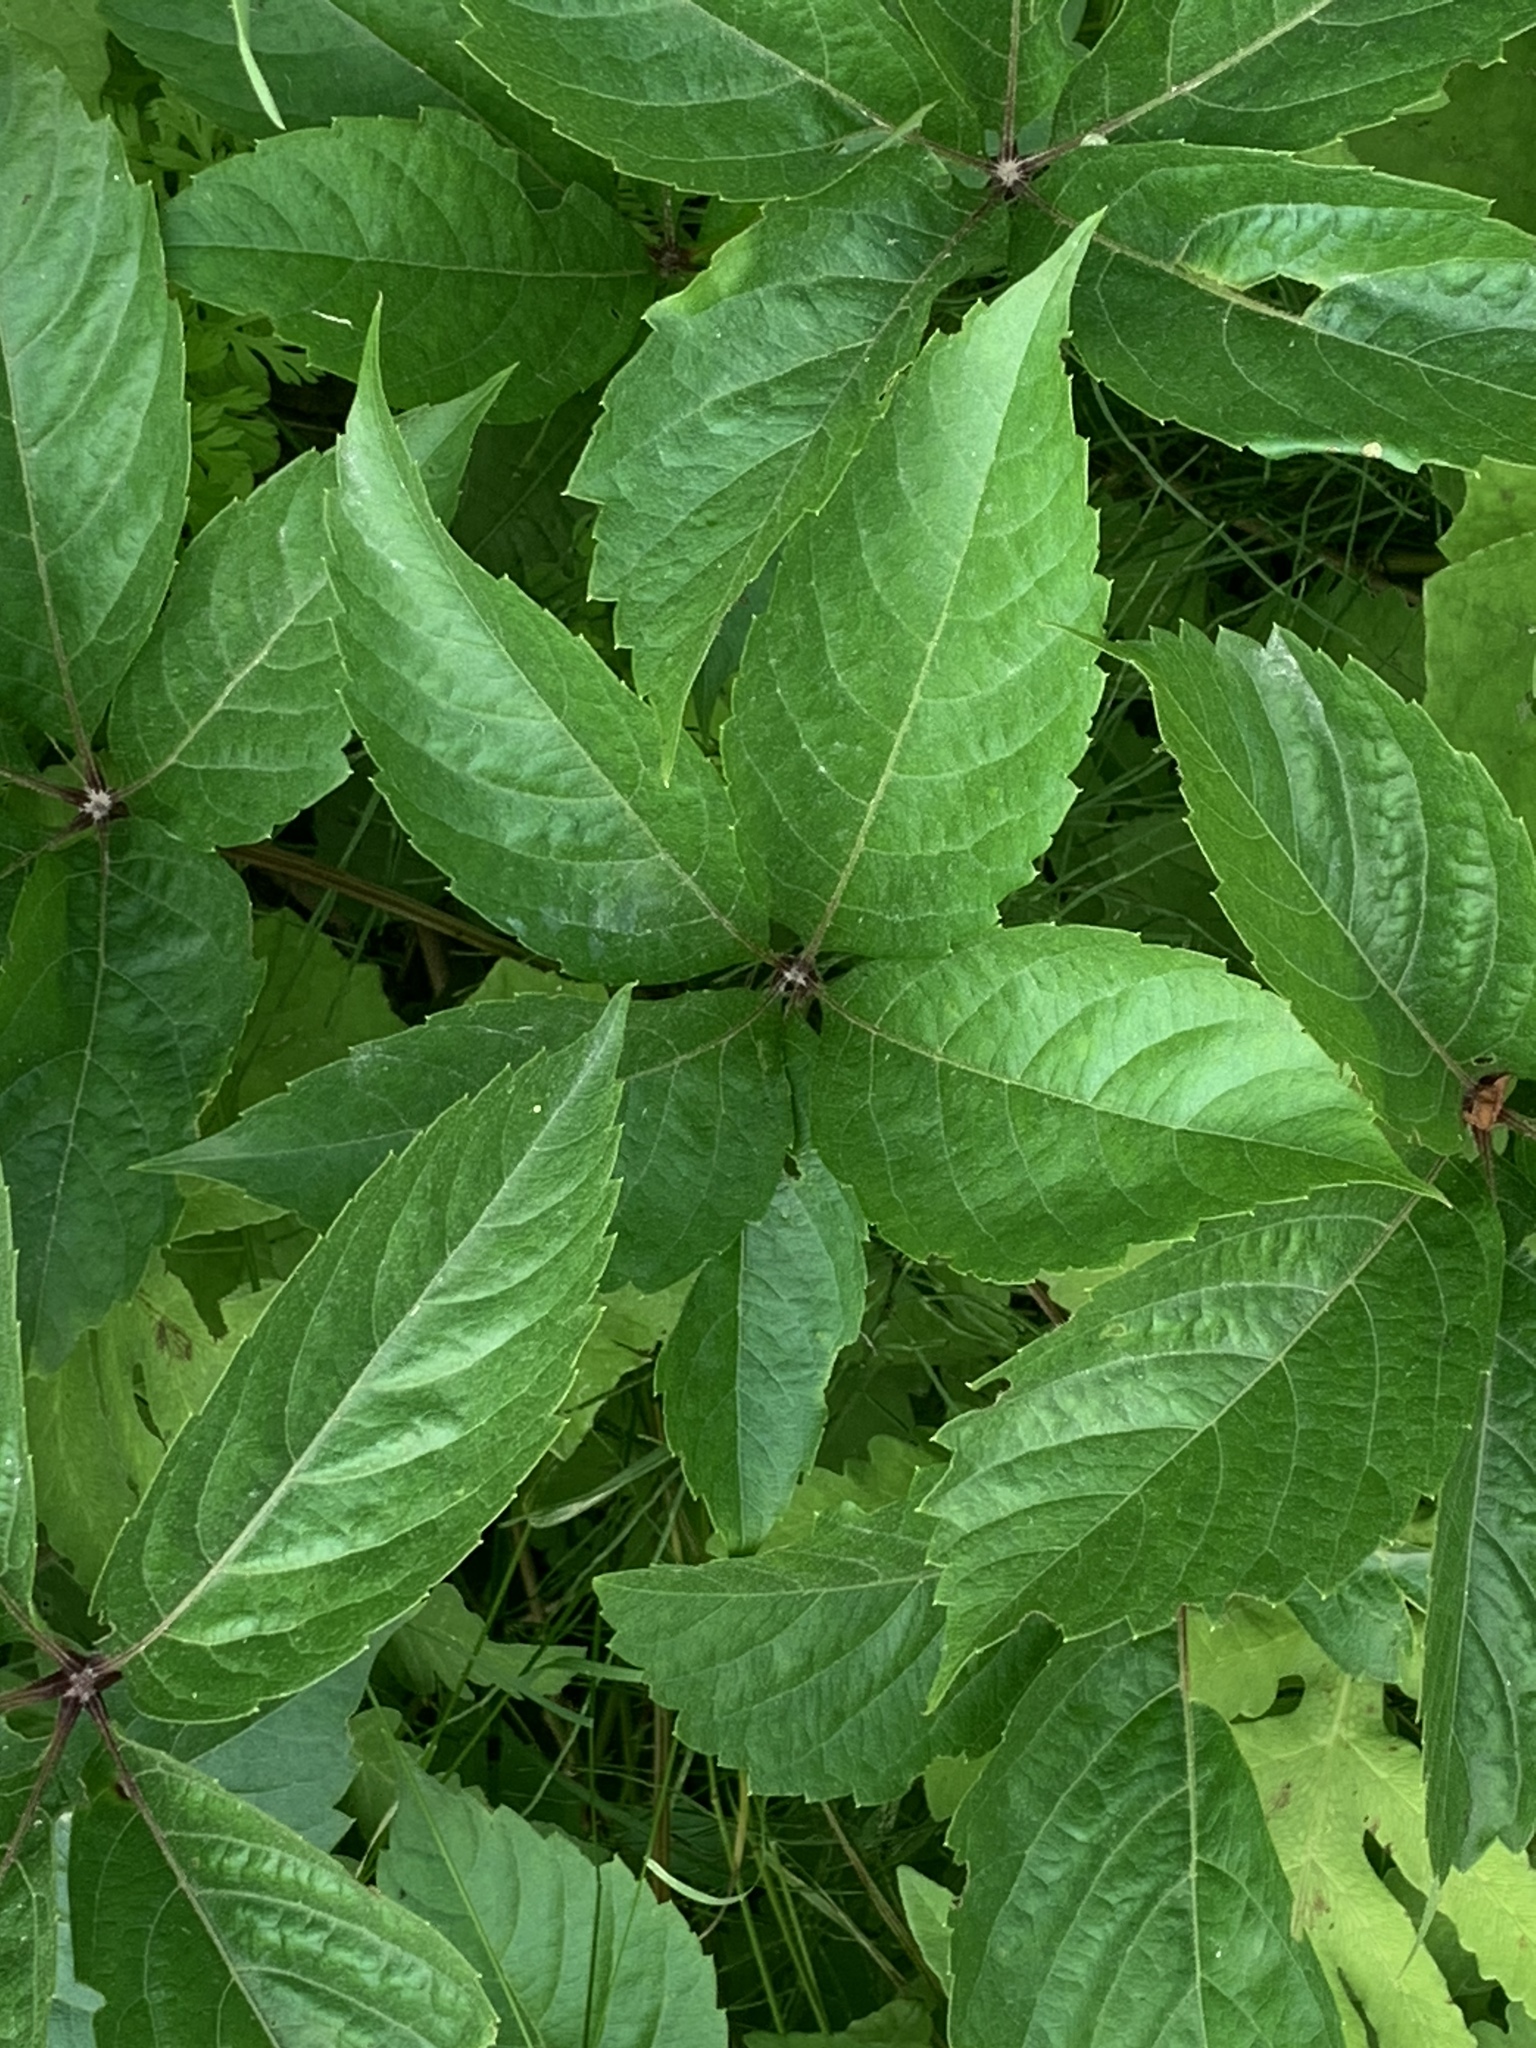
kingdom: Plantae
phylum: Tracheophyta
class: Magnoliopsida
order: Vitales
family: Vitaceae
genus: Parthenocissus
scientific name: Parthenocissus quinquefolia
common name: Virginia-creeper
